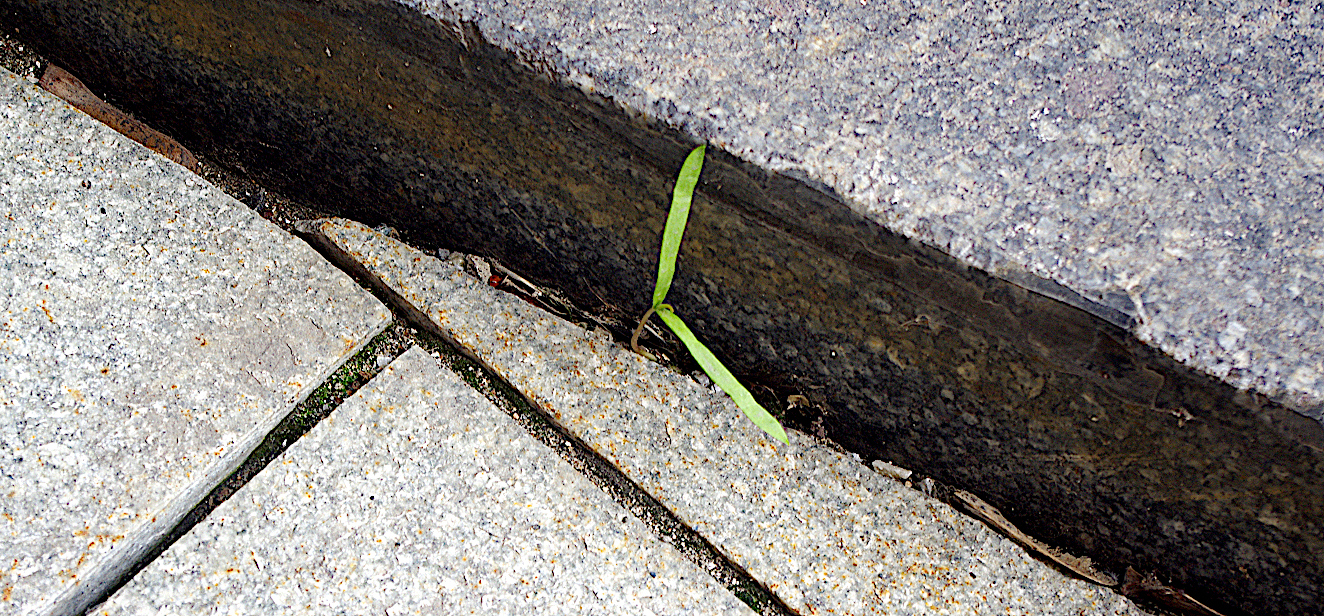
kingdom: Plantae
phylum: Tracheophyta
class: Magnoliopsida
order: Sapindales
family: Sapindaceae
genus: Acer
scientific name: Acer negundo
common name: Ashleaf maple
